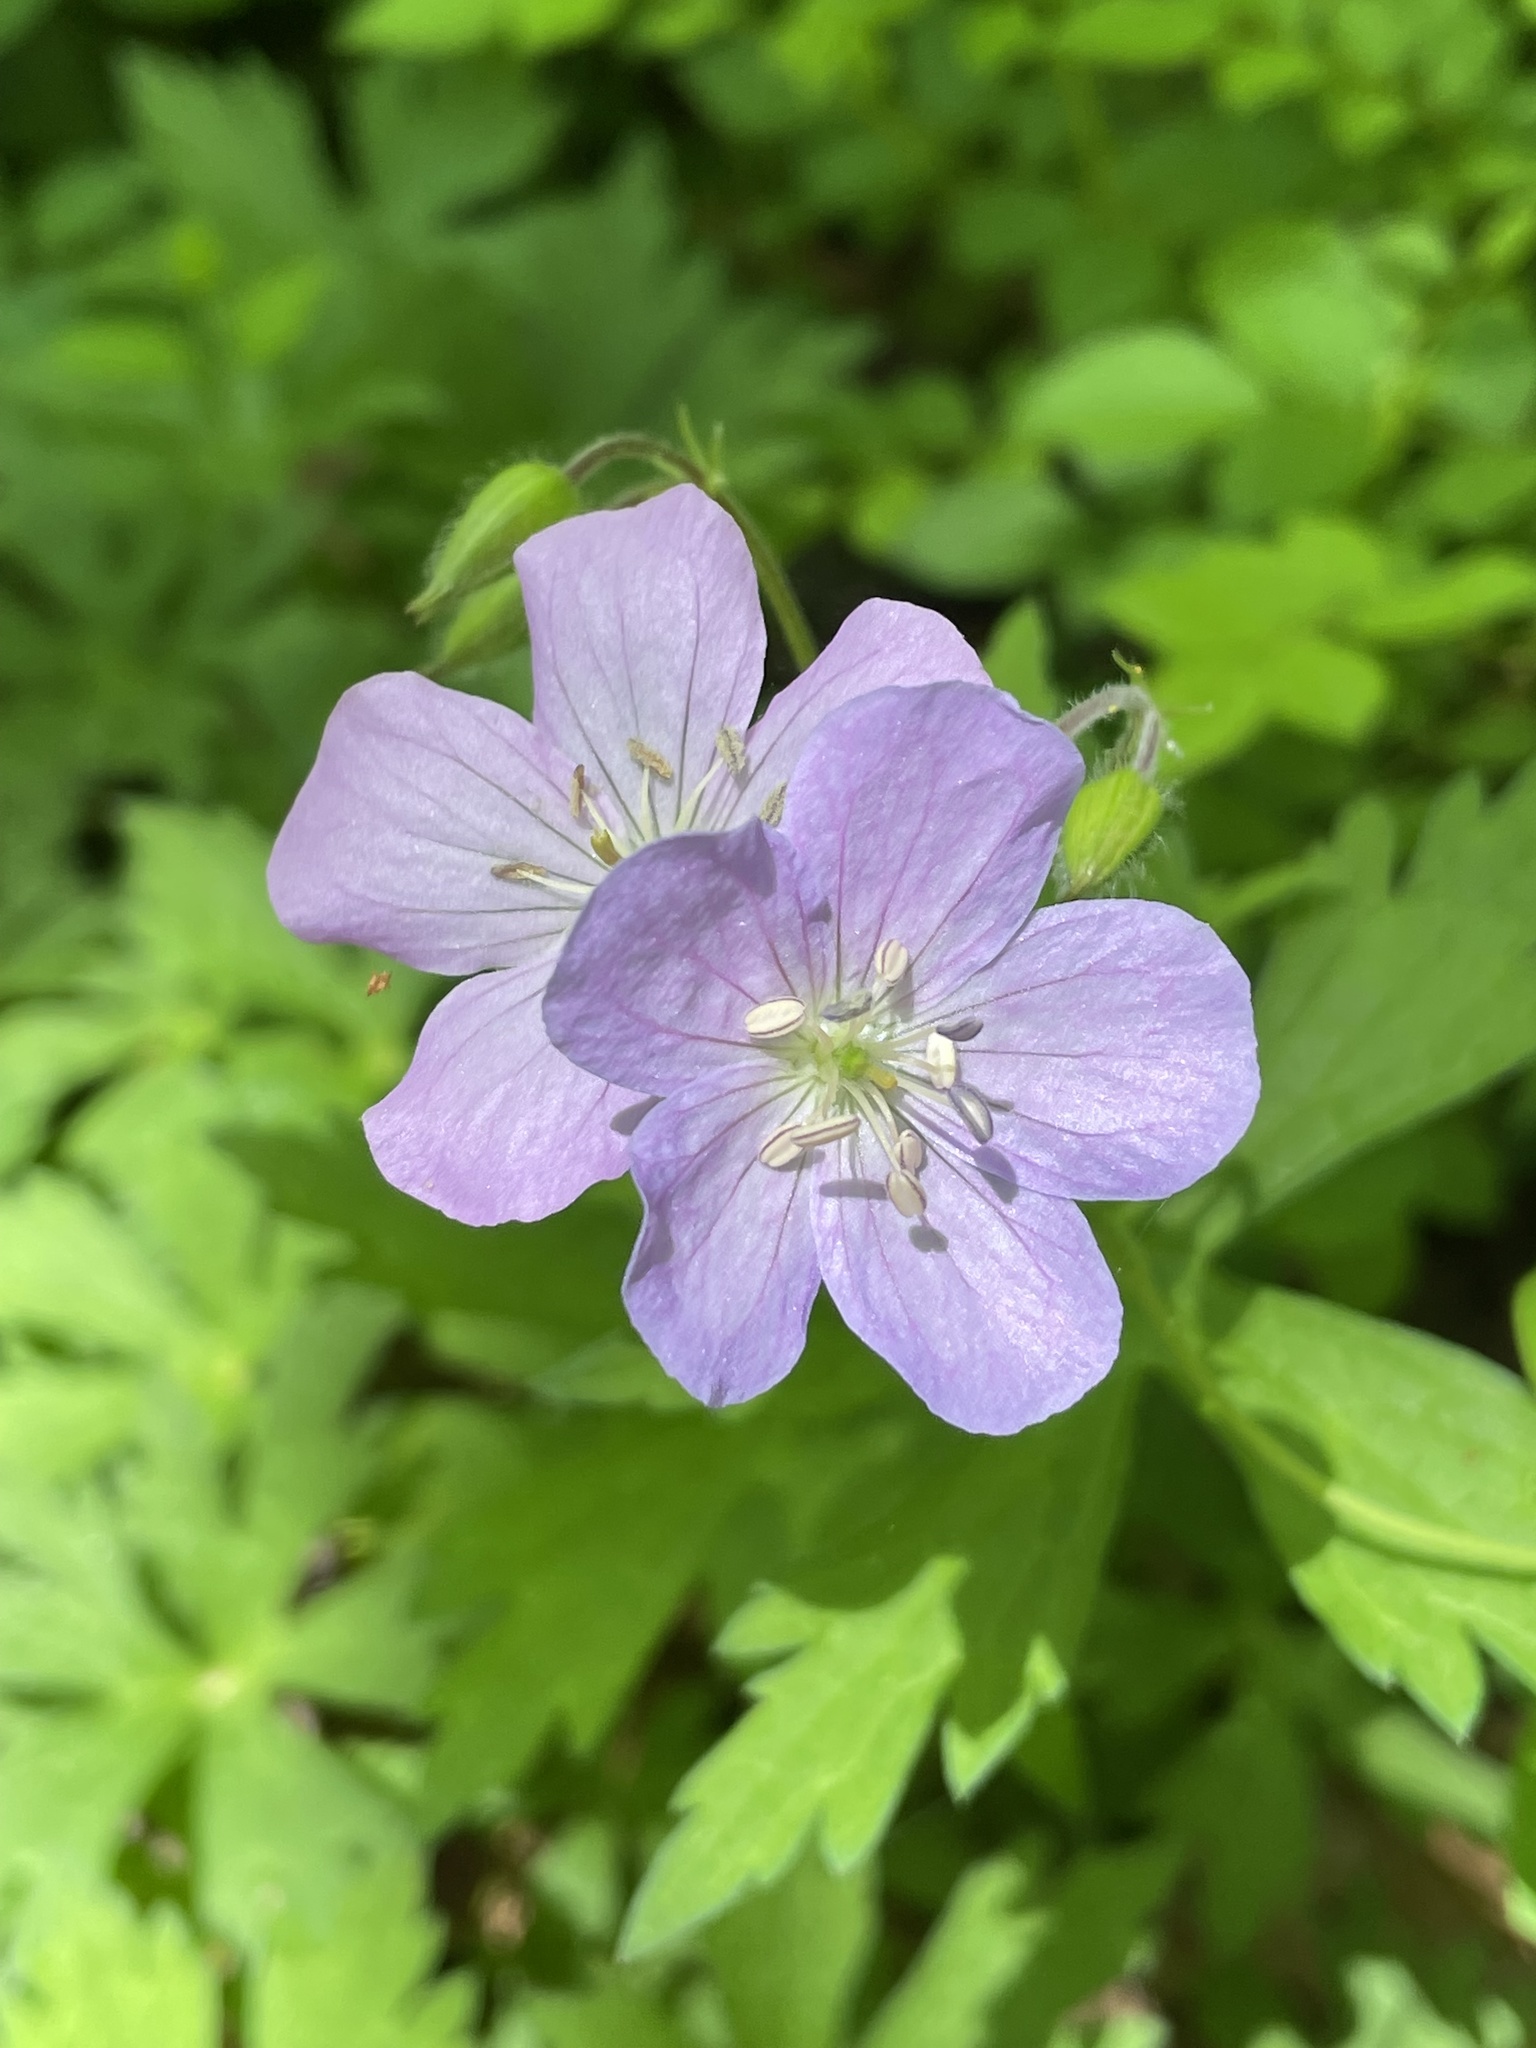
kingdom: Plantae
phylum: Tracheophyta
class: Magnoliopsida
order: Geraniales
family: Geraniaceae
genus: Geranium
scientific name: Geranium maculatum
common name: Spotted geranium
